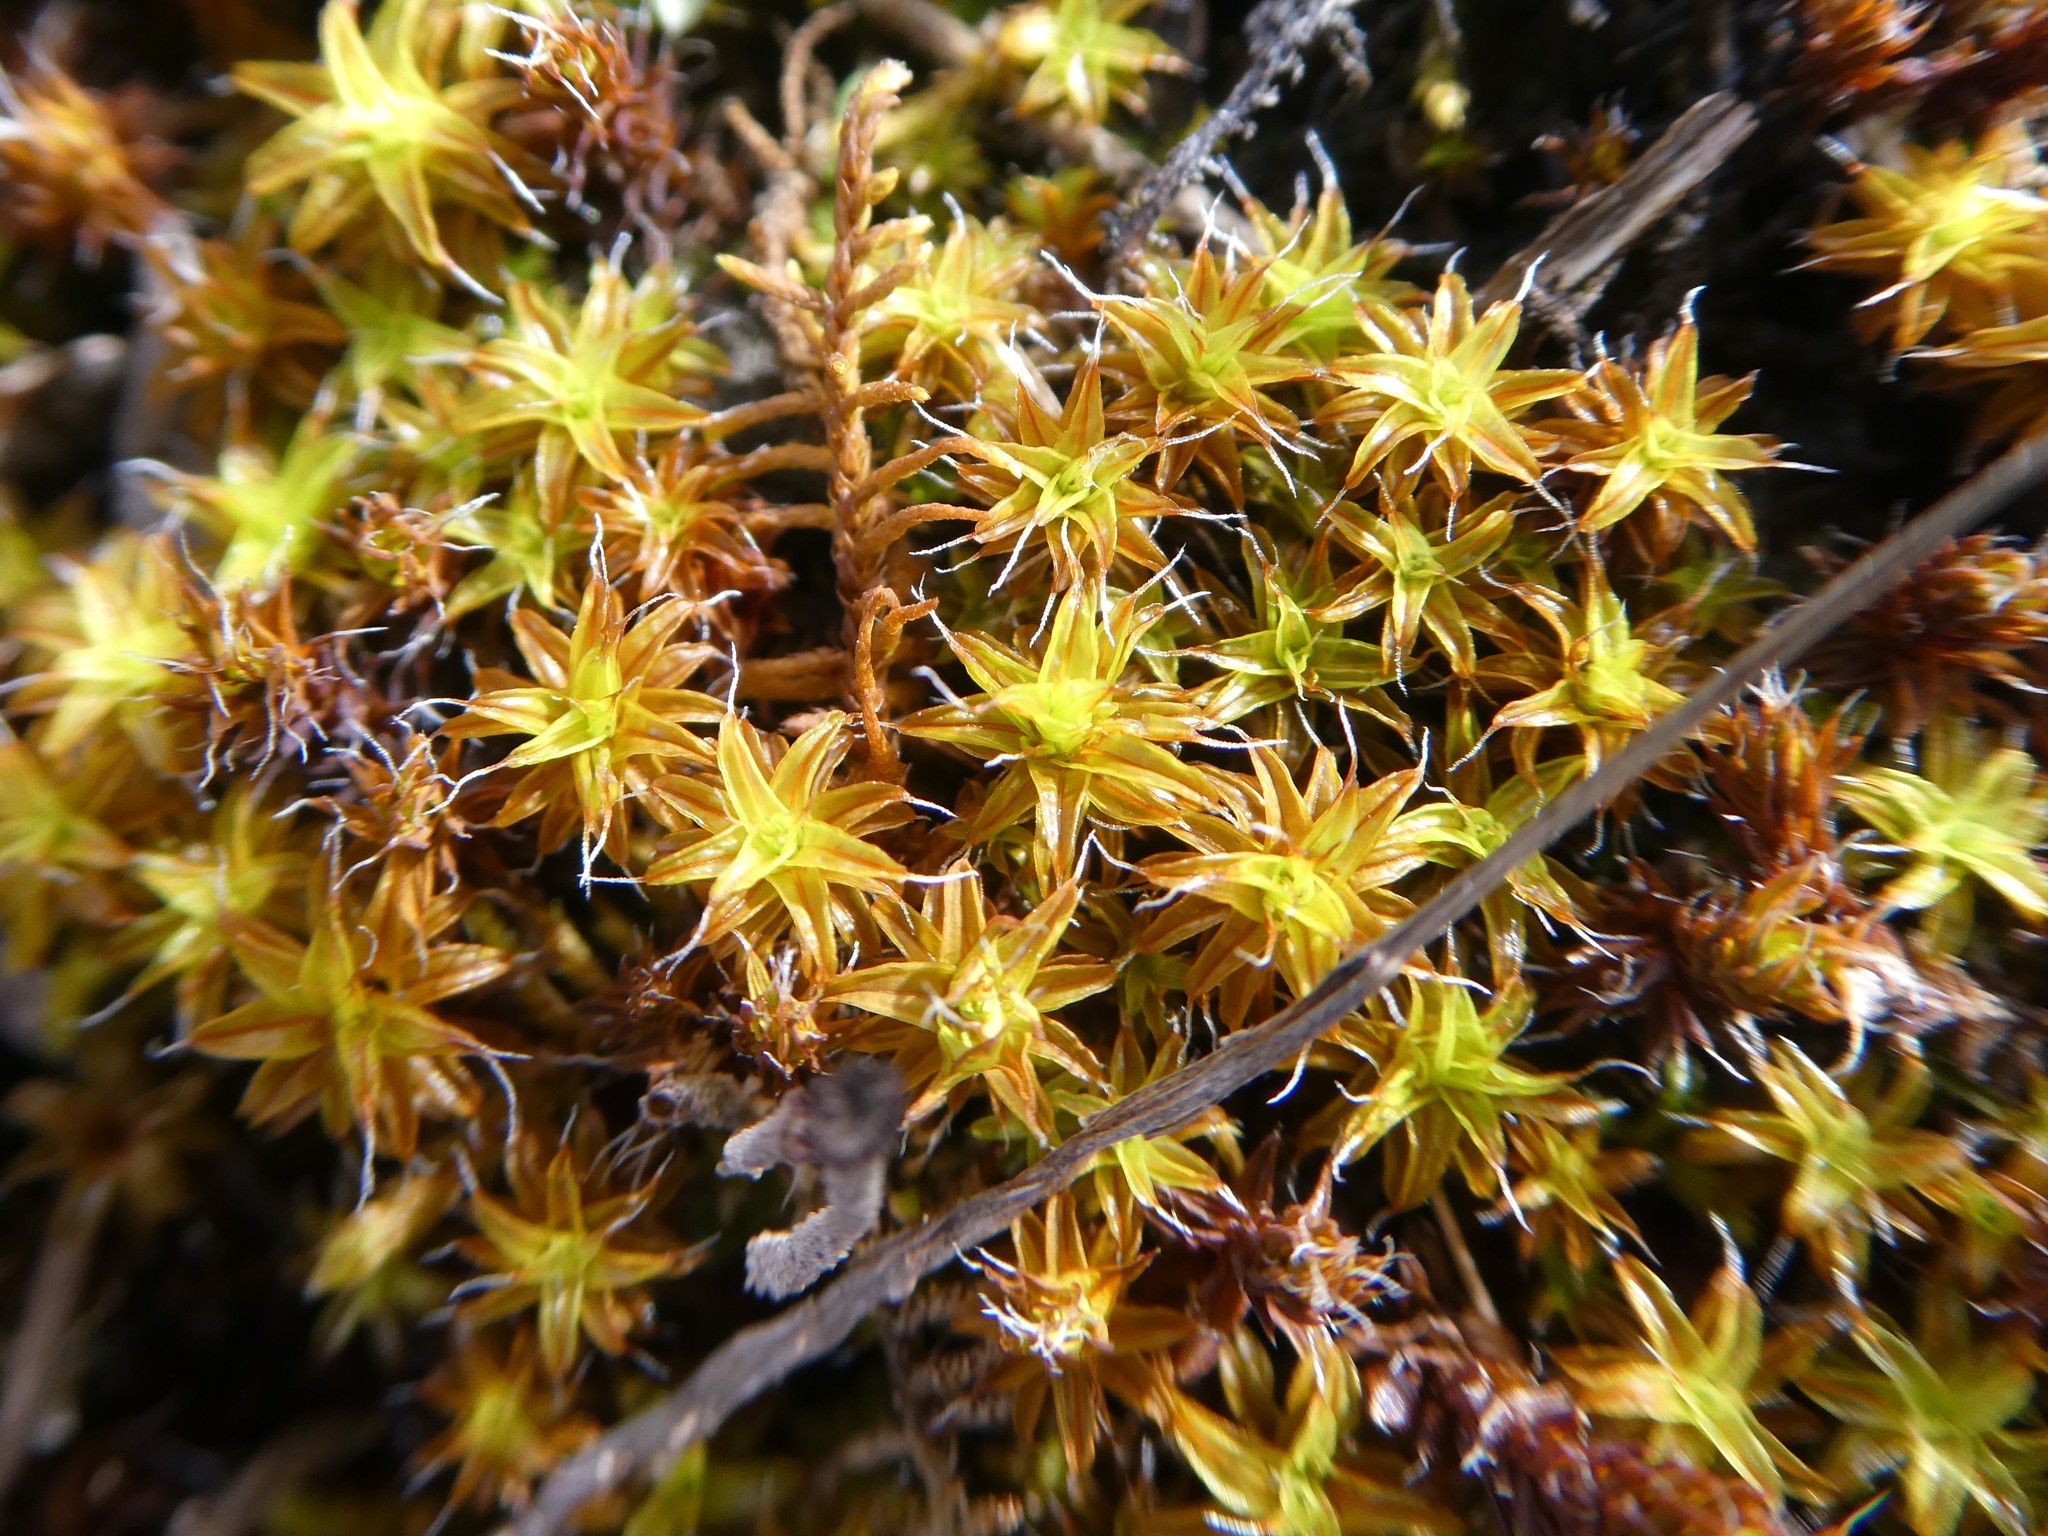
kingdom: Plantae
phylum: Bryophyta
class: Bryopsida
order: Pottiales
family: Pottiaceae
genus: Syntrichia
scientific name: Syntrichia ruralis
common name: Sidewalk screw moss
